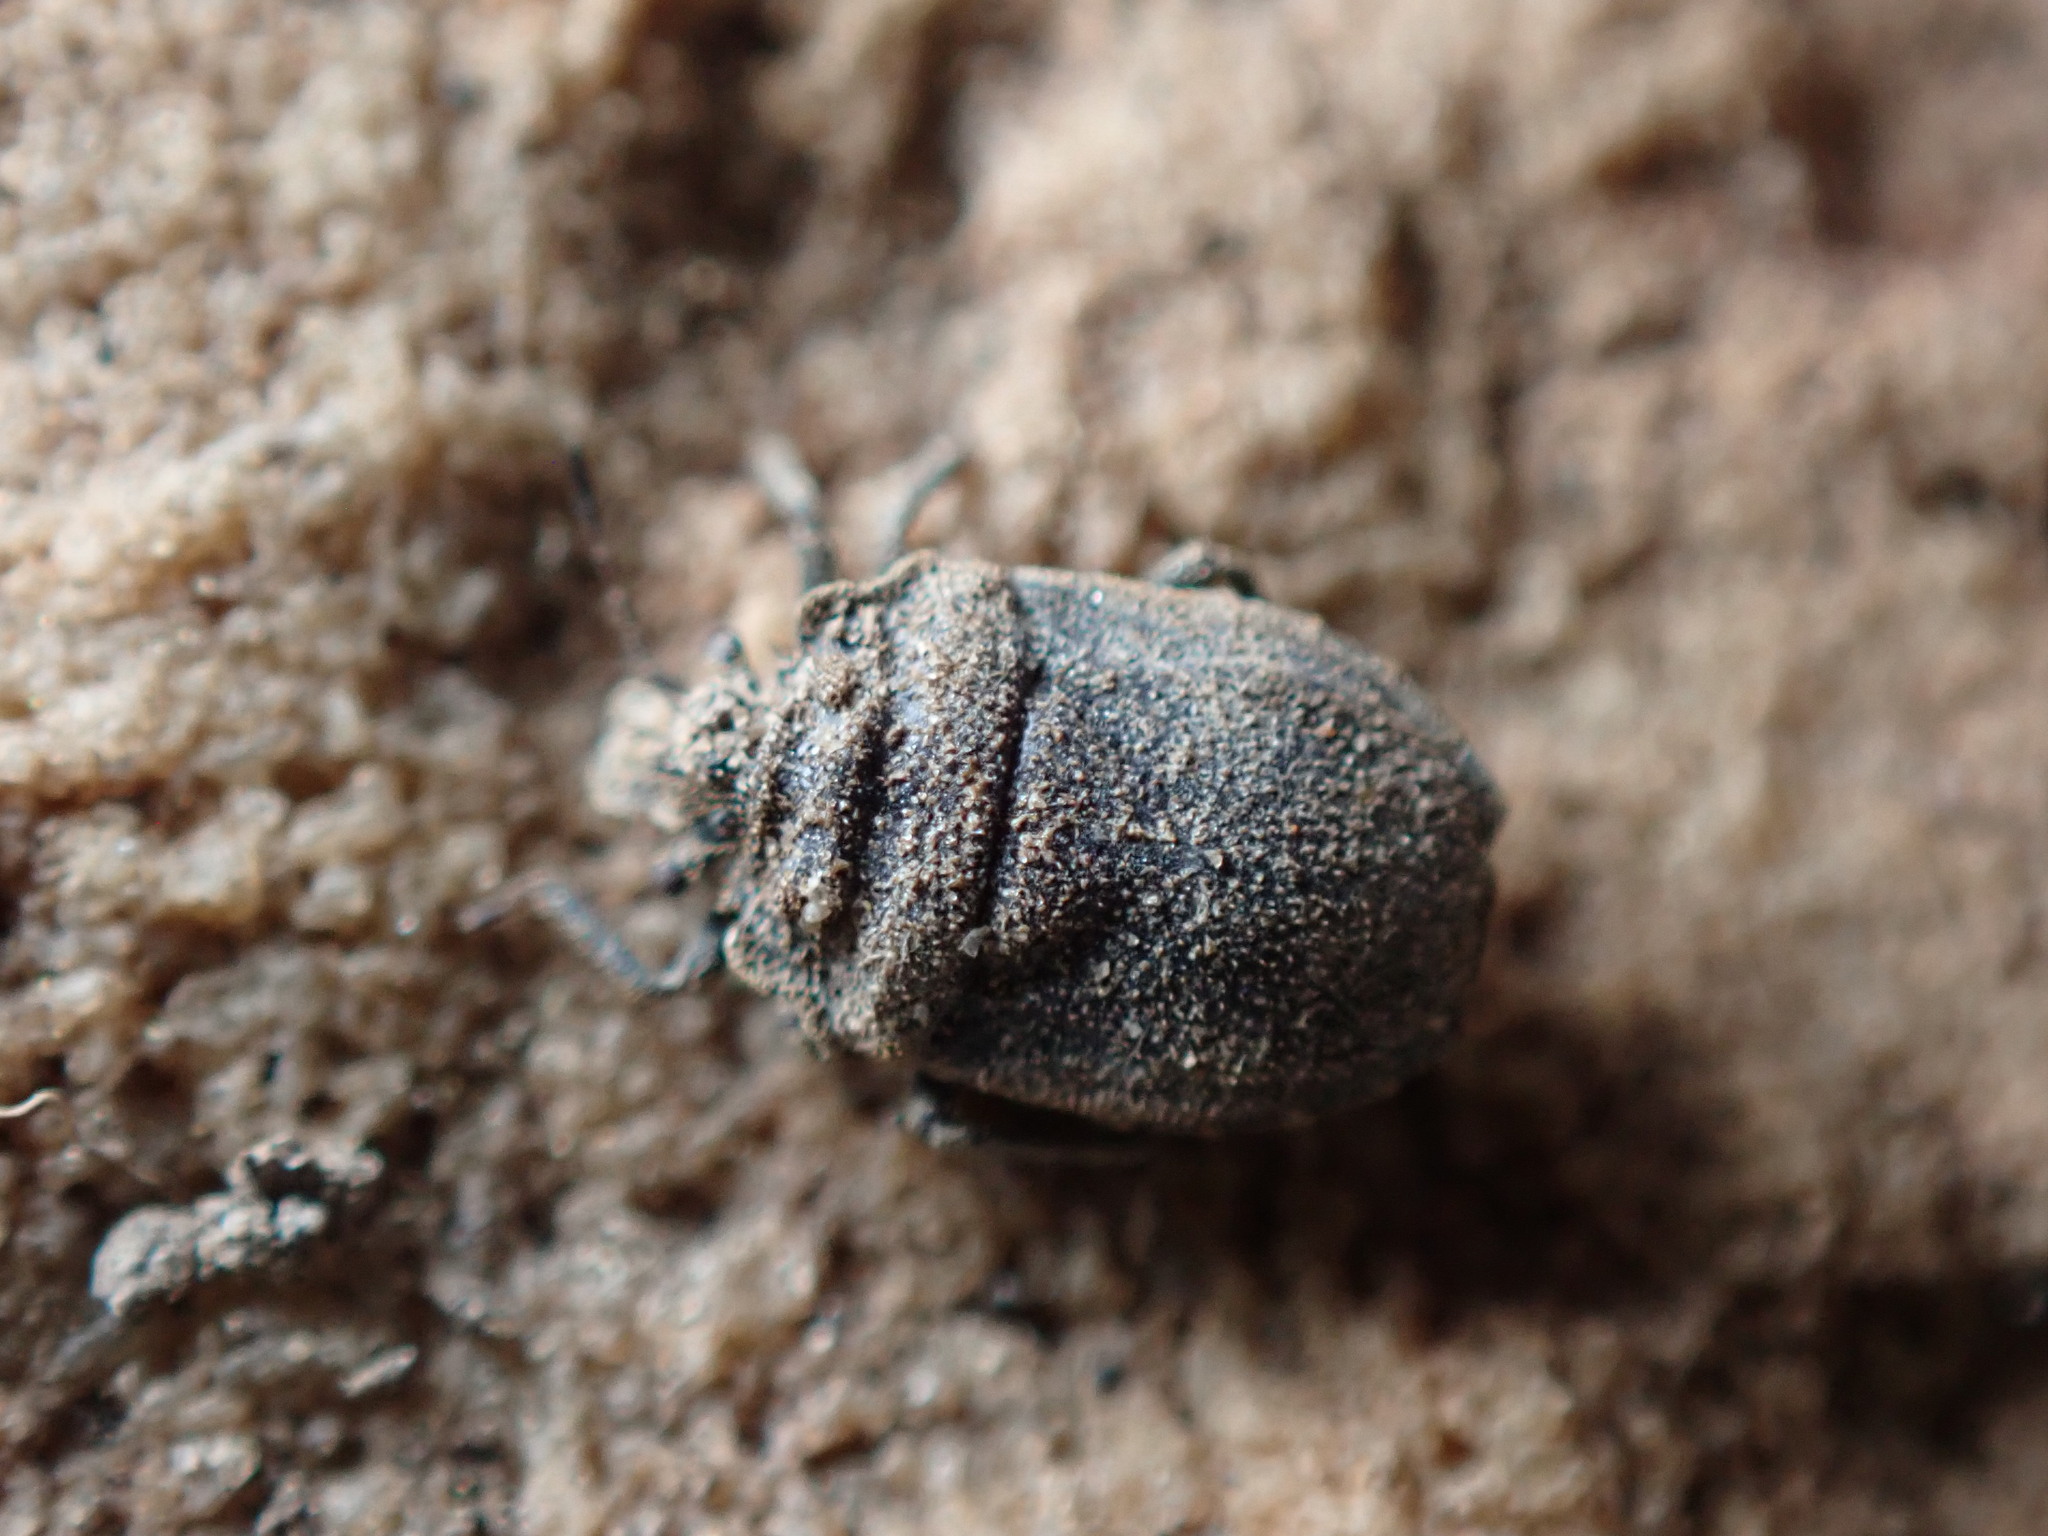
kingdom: Animalia
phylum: Arthropoda
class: Insecta
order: Hemiptera
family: Pentatomidae
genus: Weda
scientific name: Weda tumidifrons
